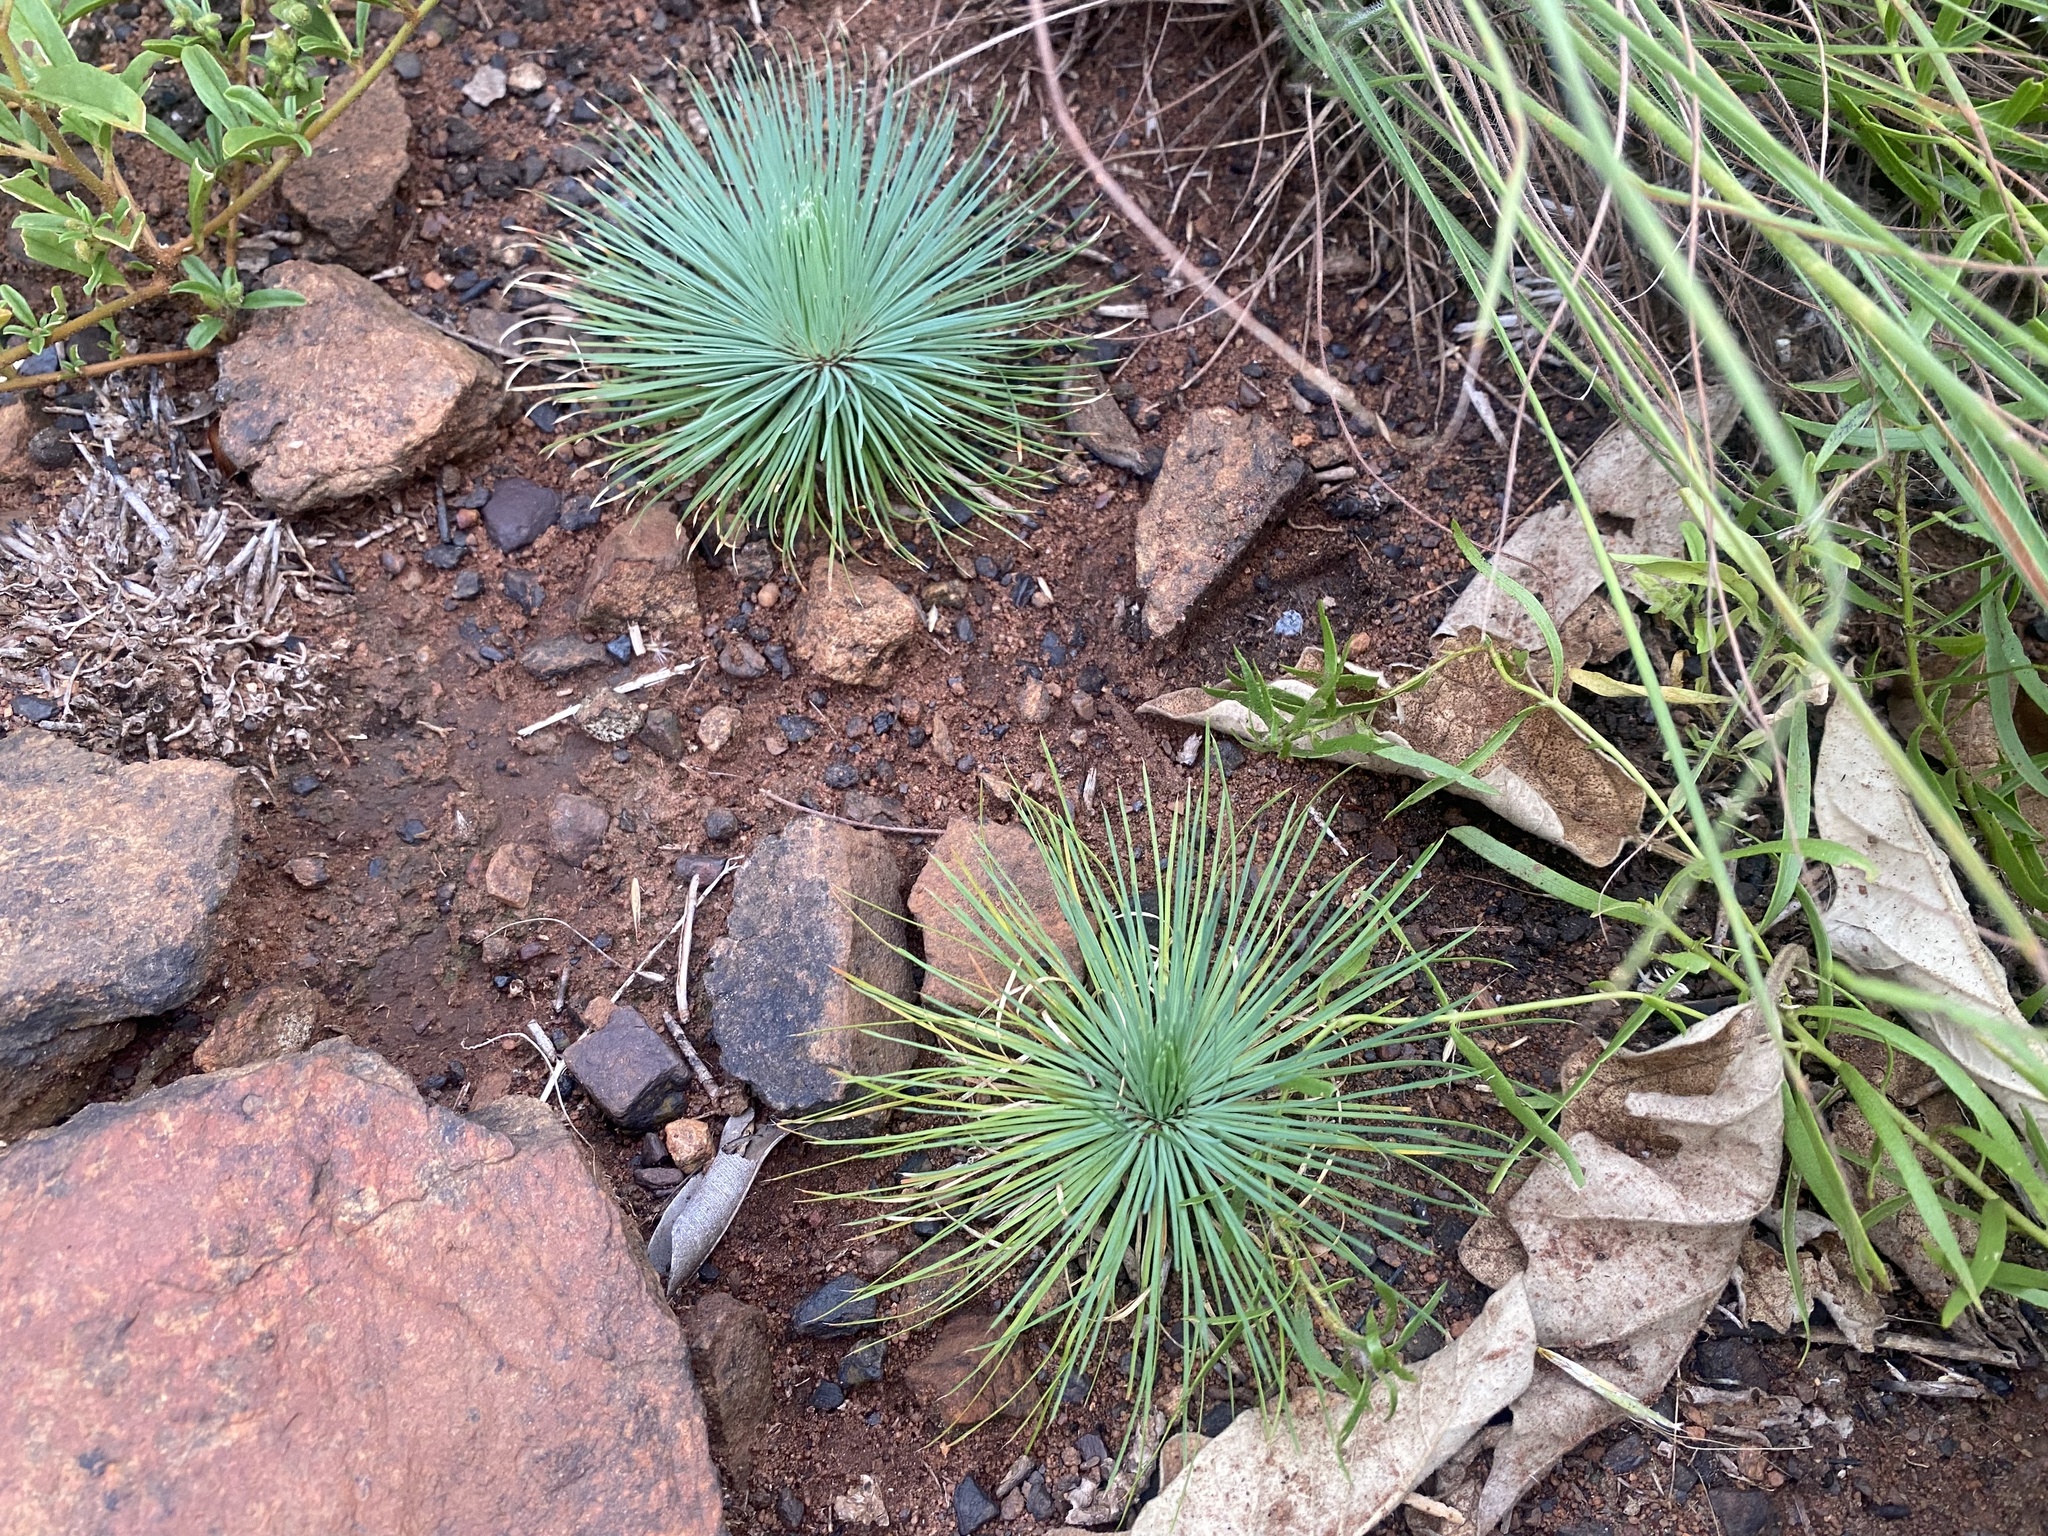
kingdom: Plantae
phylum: Tracheophyta
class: Magnoliopsida
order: Caryophyllales
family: Molluginaceae
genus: Psammotropha
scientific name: Psammotropha myriantha
